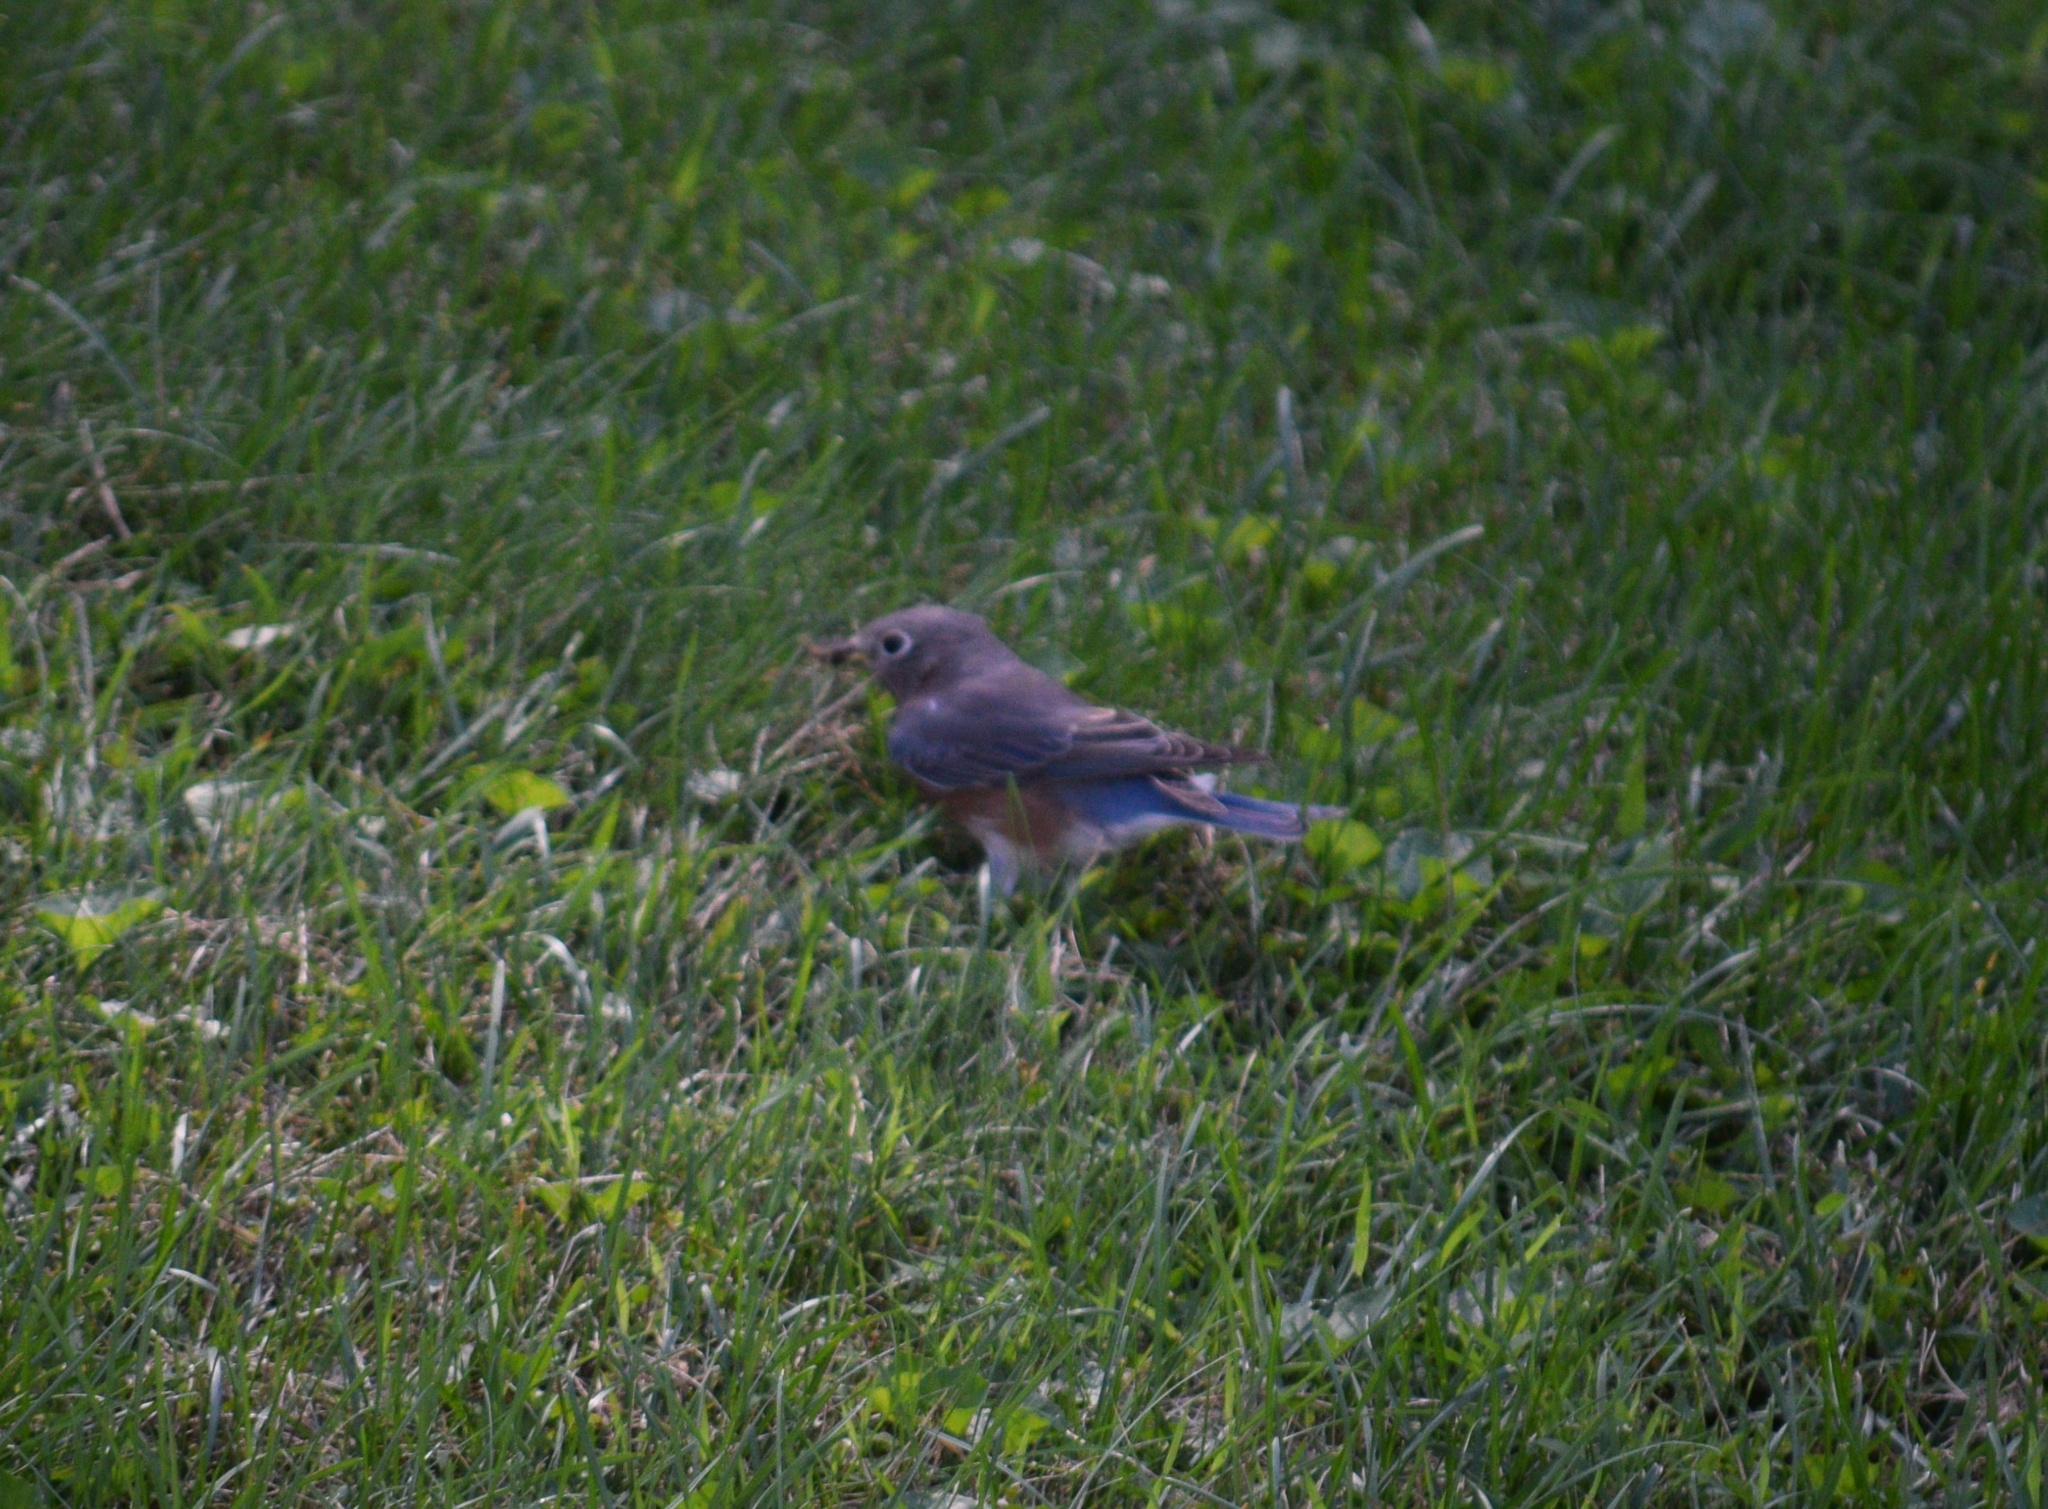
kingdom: Animalia
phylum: Chordata
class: Aves
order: Passeriformes
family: Turdidae
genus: Sialia
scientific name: Sialia sialis
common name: Eastern bluebird
